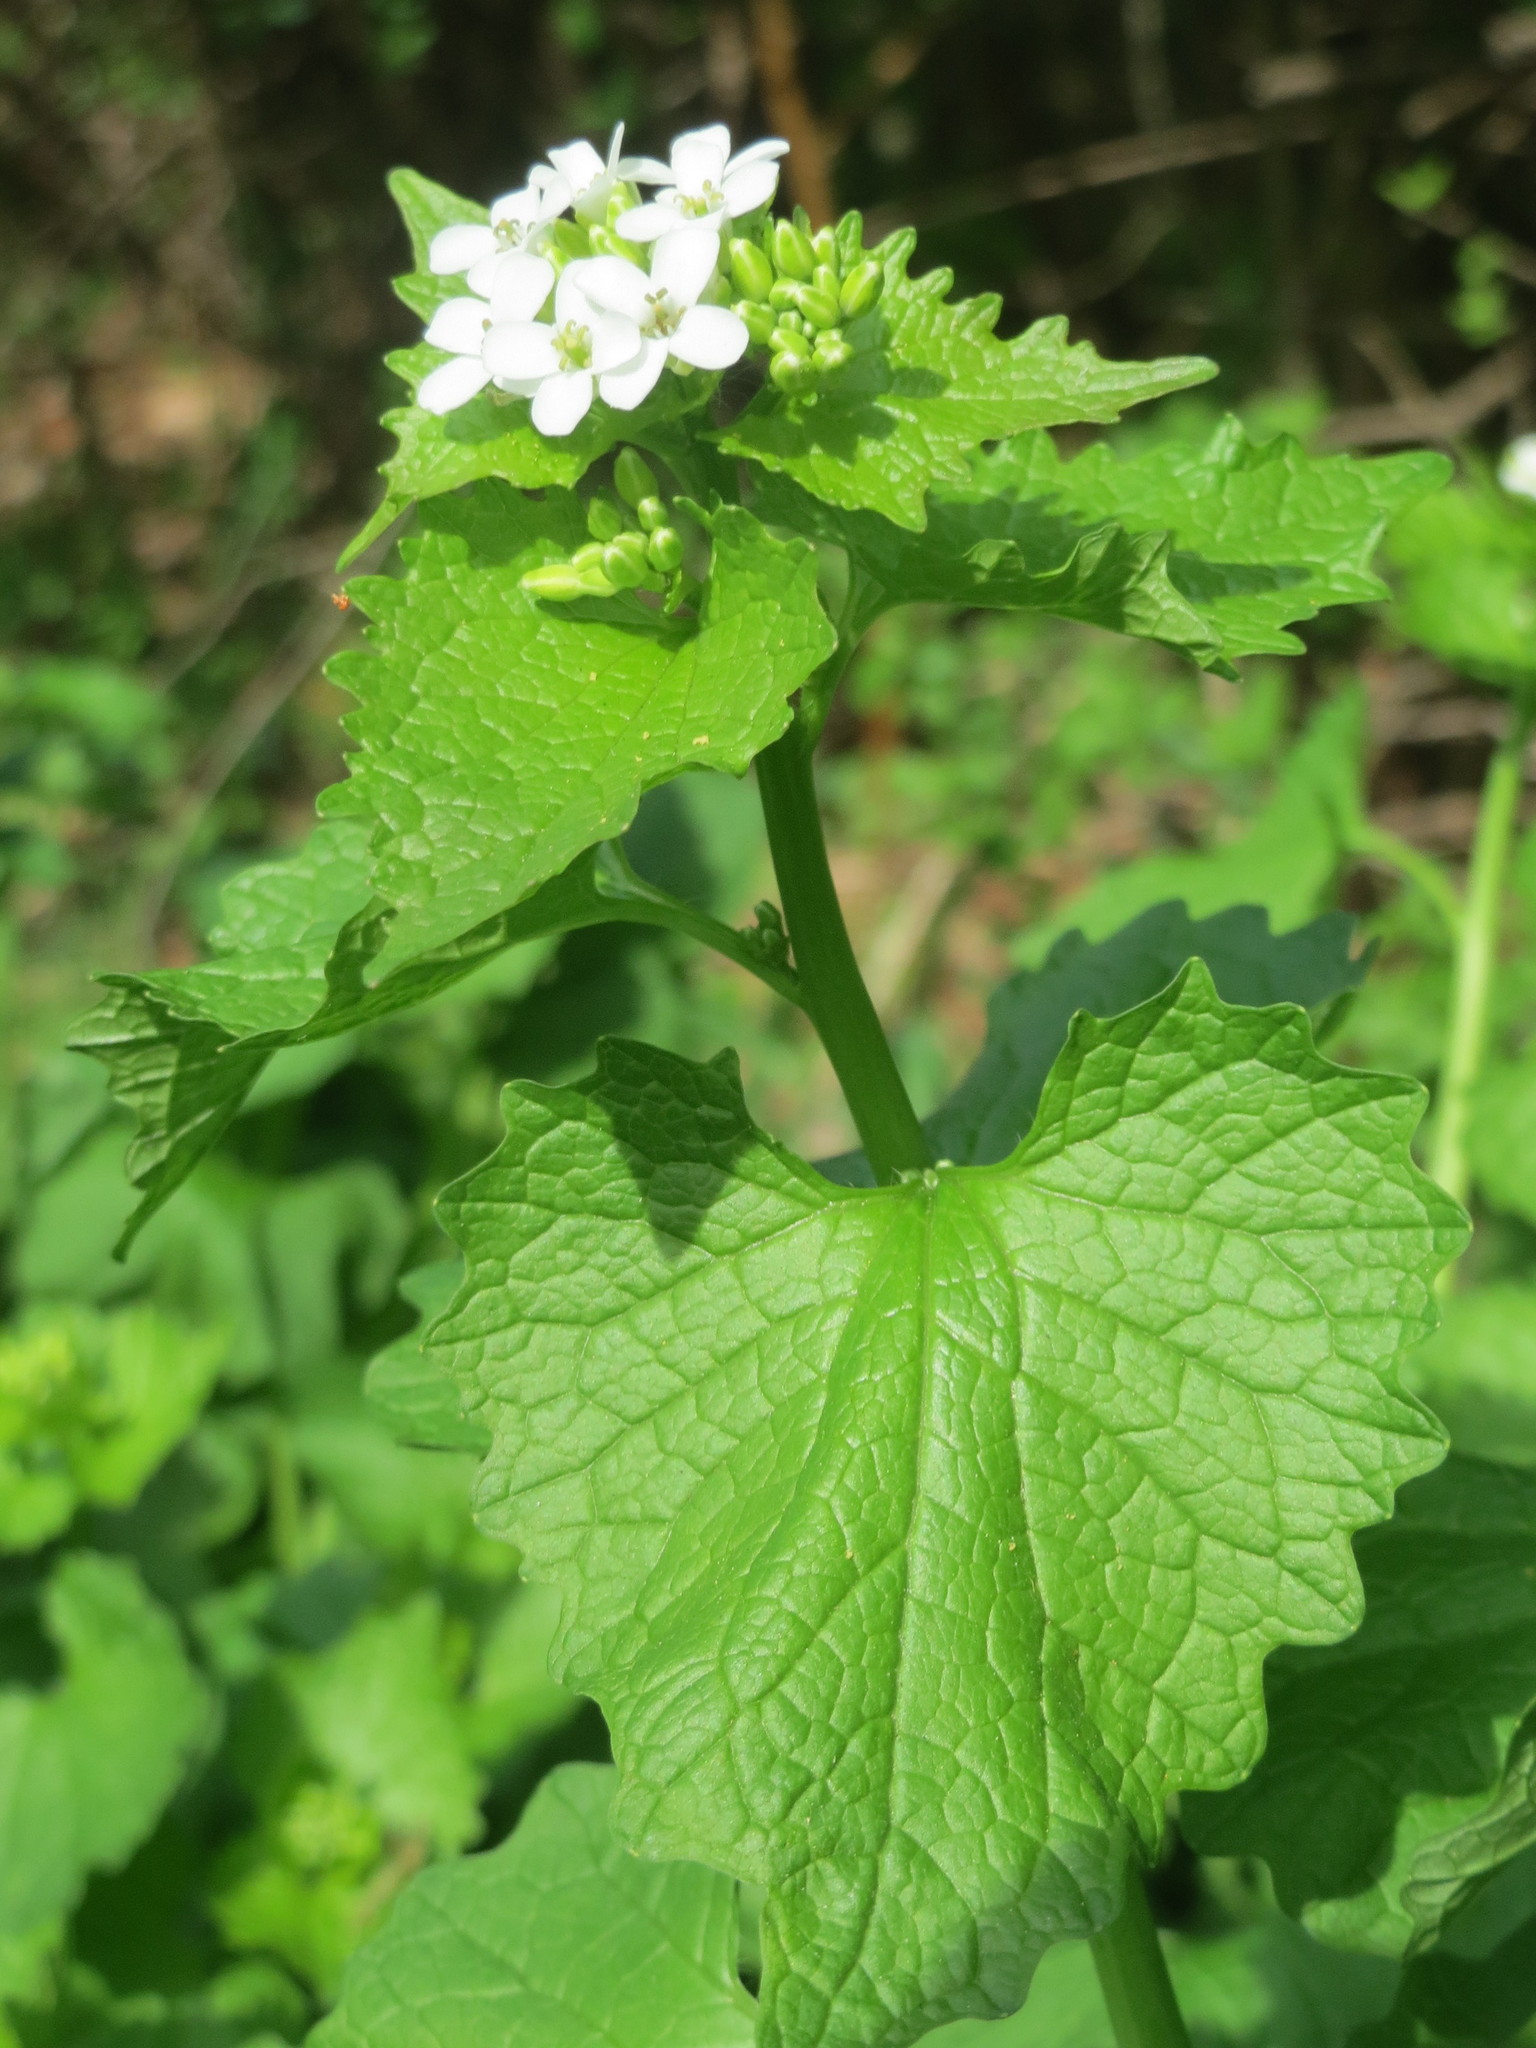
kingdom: Plantae
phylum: Tracheophyta
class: Magnoliopsida
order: Brassicales
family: Brassicaceae
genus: Alliaria
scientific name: Alliaria petiolata
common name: Garlic mustard
